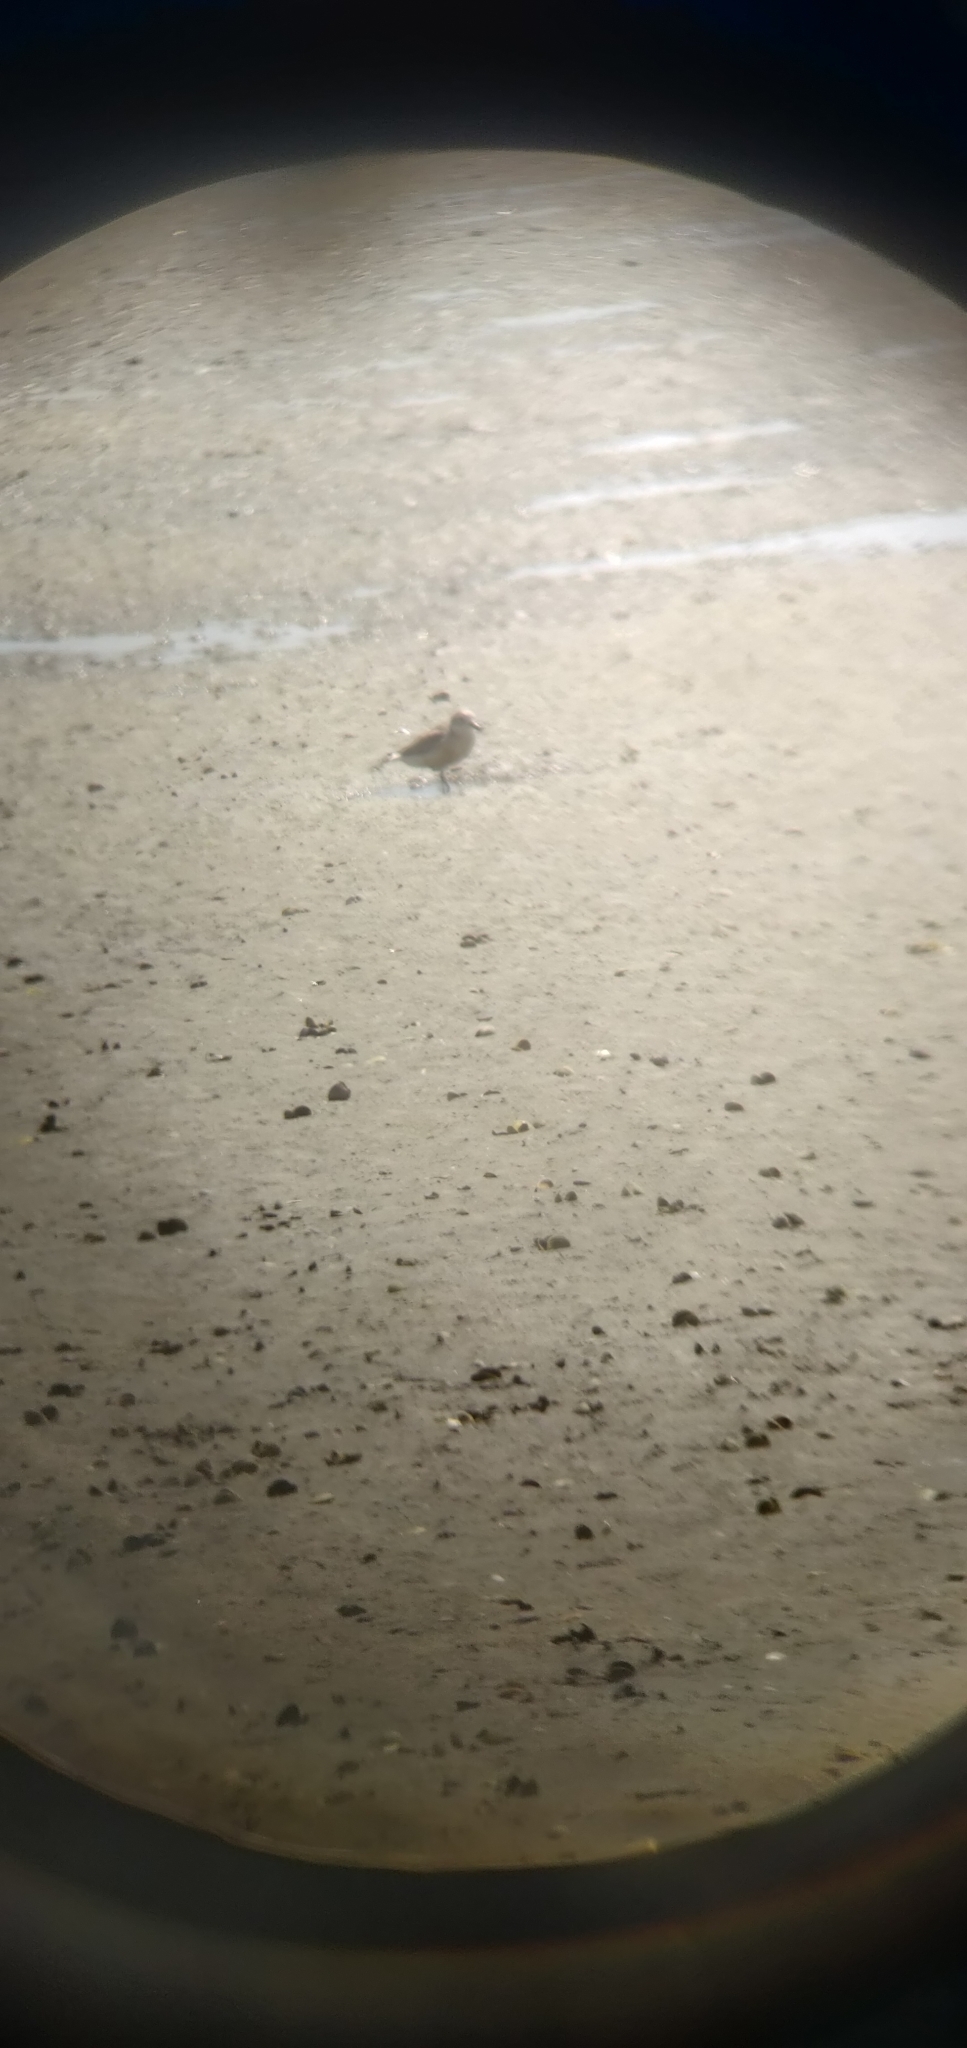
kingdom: Animalia
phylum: Chordata
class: Aves
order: Charadriiformes
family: Charadriidae
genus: Anarhynchus
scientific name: Anarhynchus
